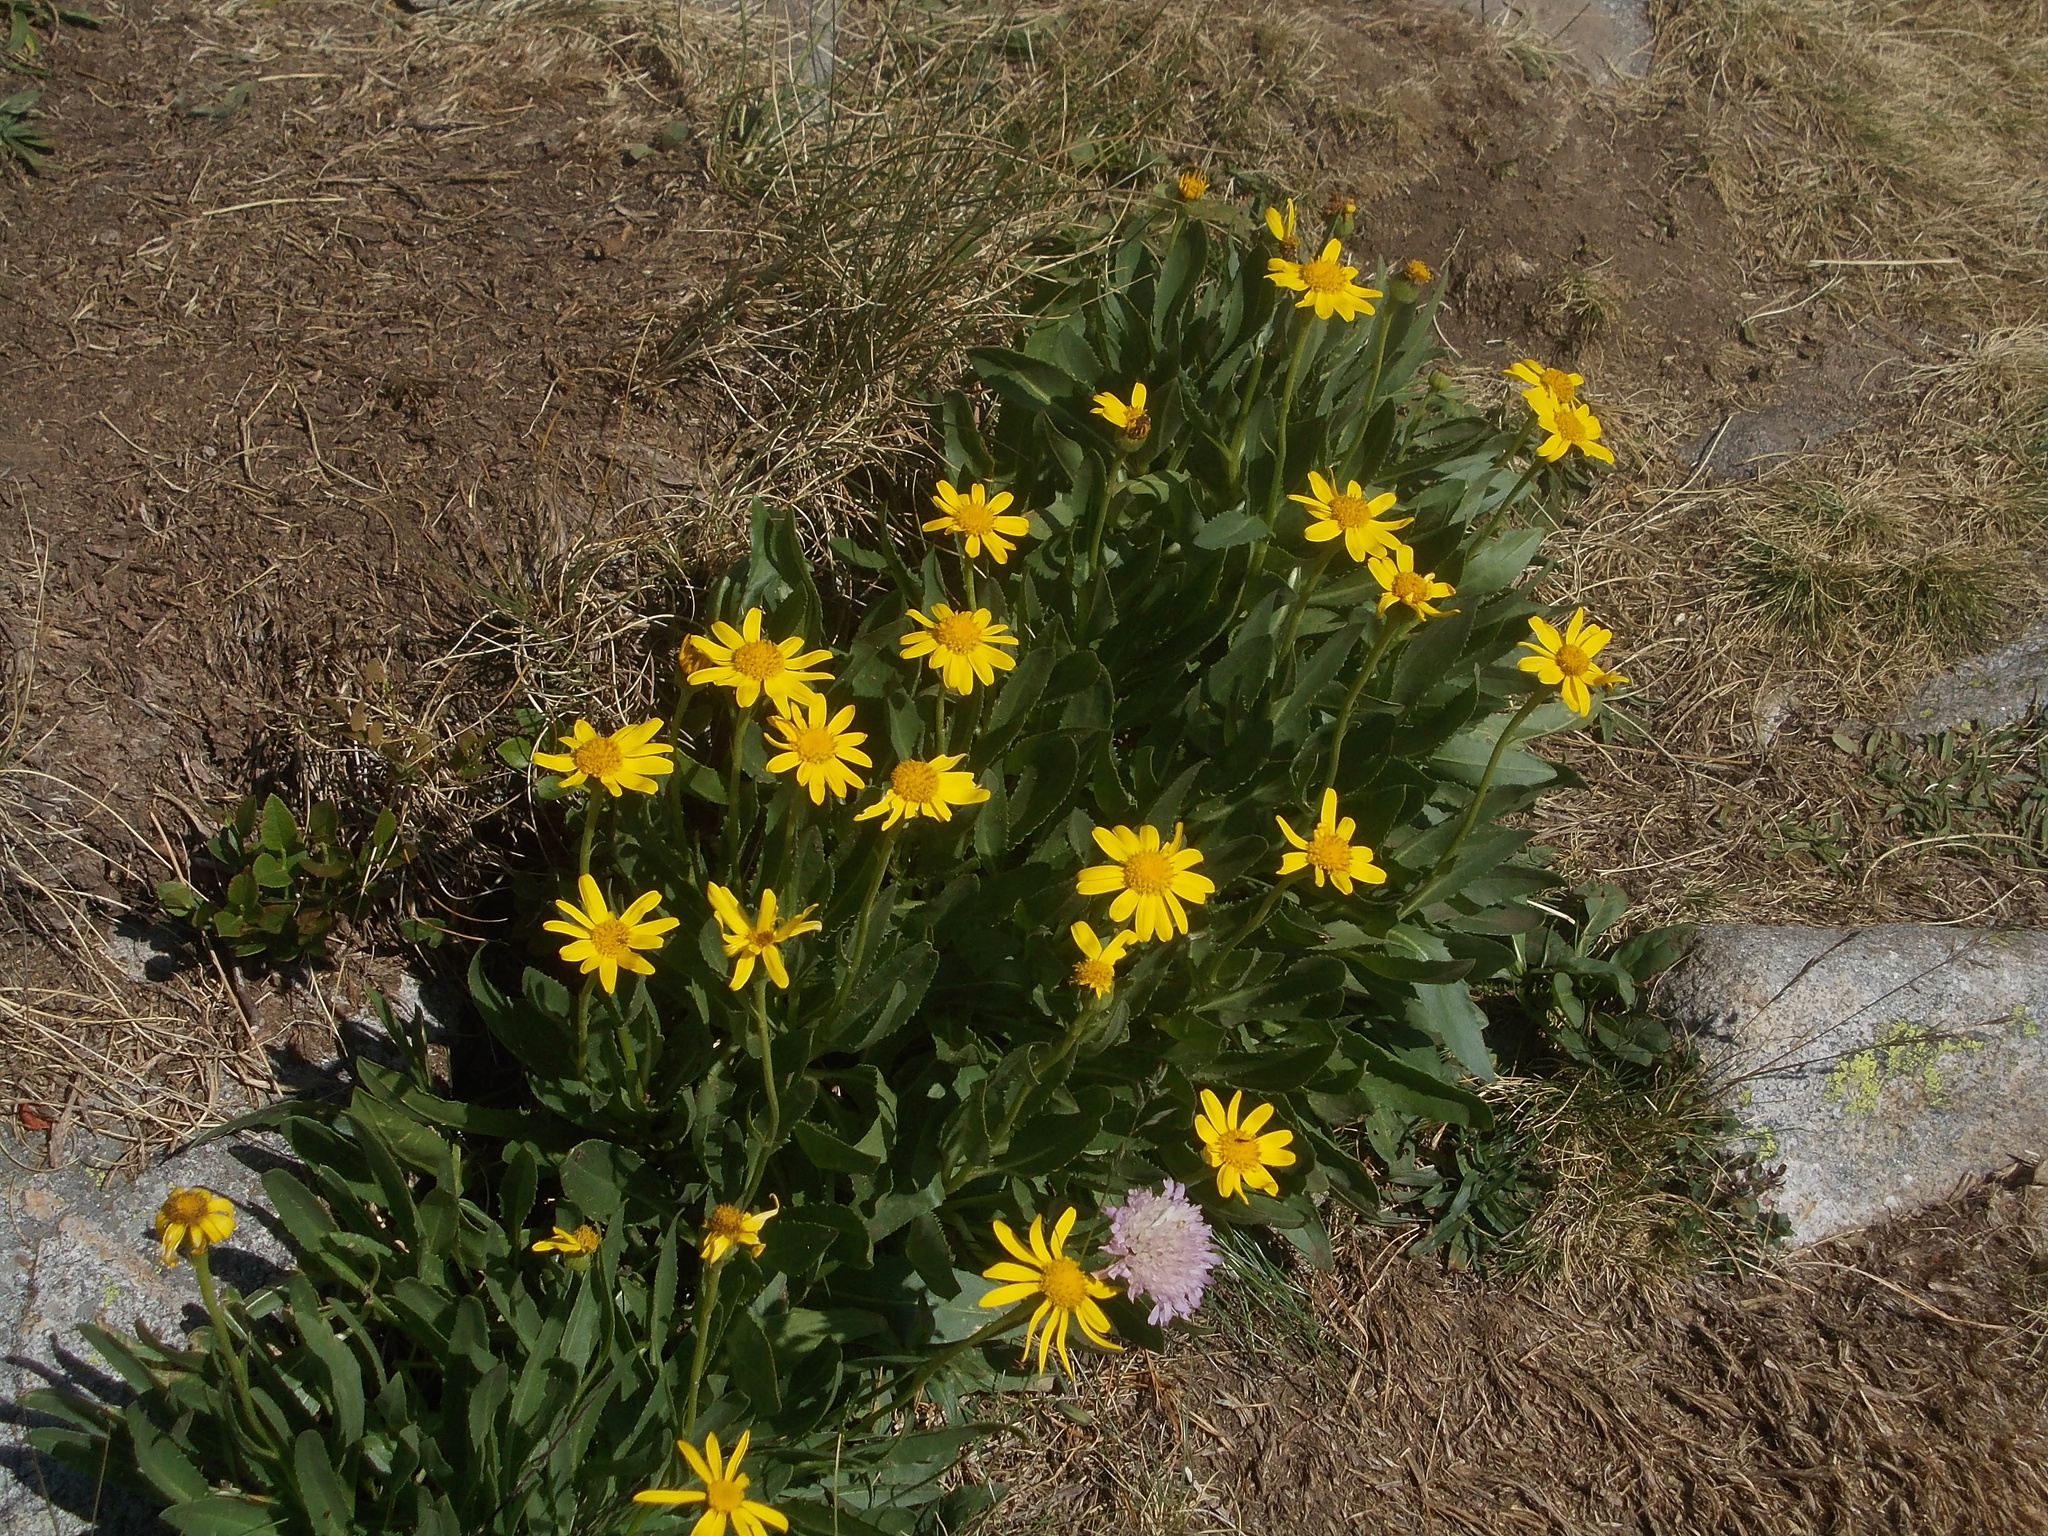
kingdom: Plantae
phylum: Tracheophyta
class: Magnoliopsida
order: Asterales
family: Asteraceae
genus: Senecio
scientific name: Senecio doronicum
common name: Chamois ragwort
